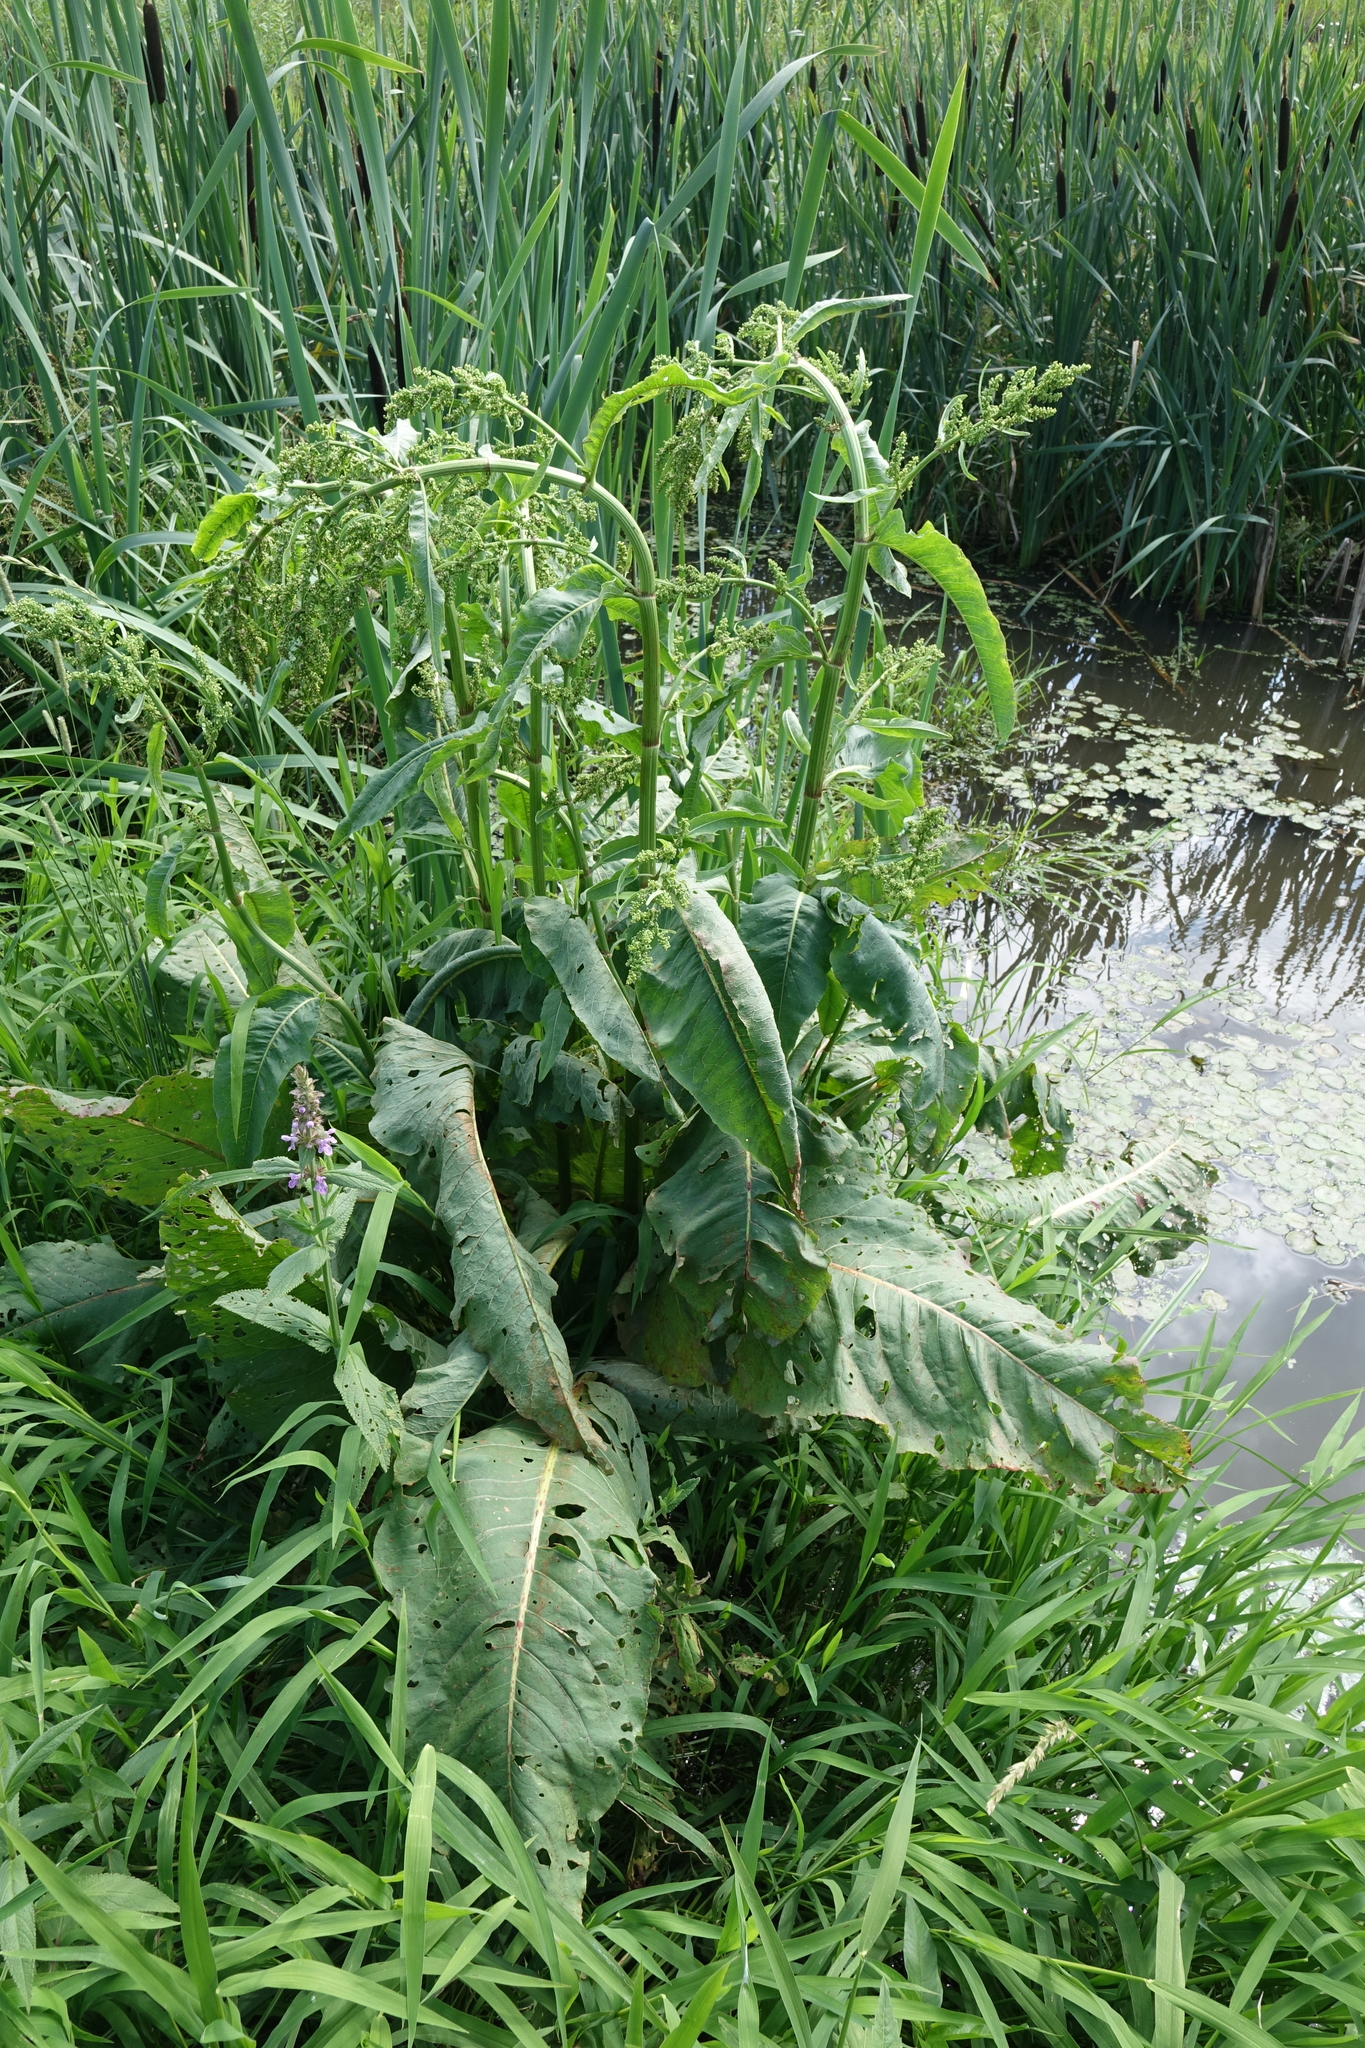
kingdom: Plantae
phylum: Tracheophyta
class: Magnoliopsida
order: Caryophyllales
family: Polygonaceae
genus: Rumex
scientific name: Rumex aquaticus
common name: Scottish dock
